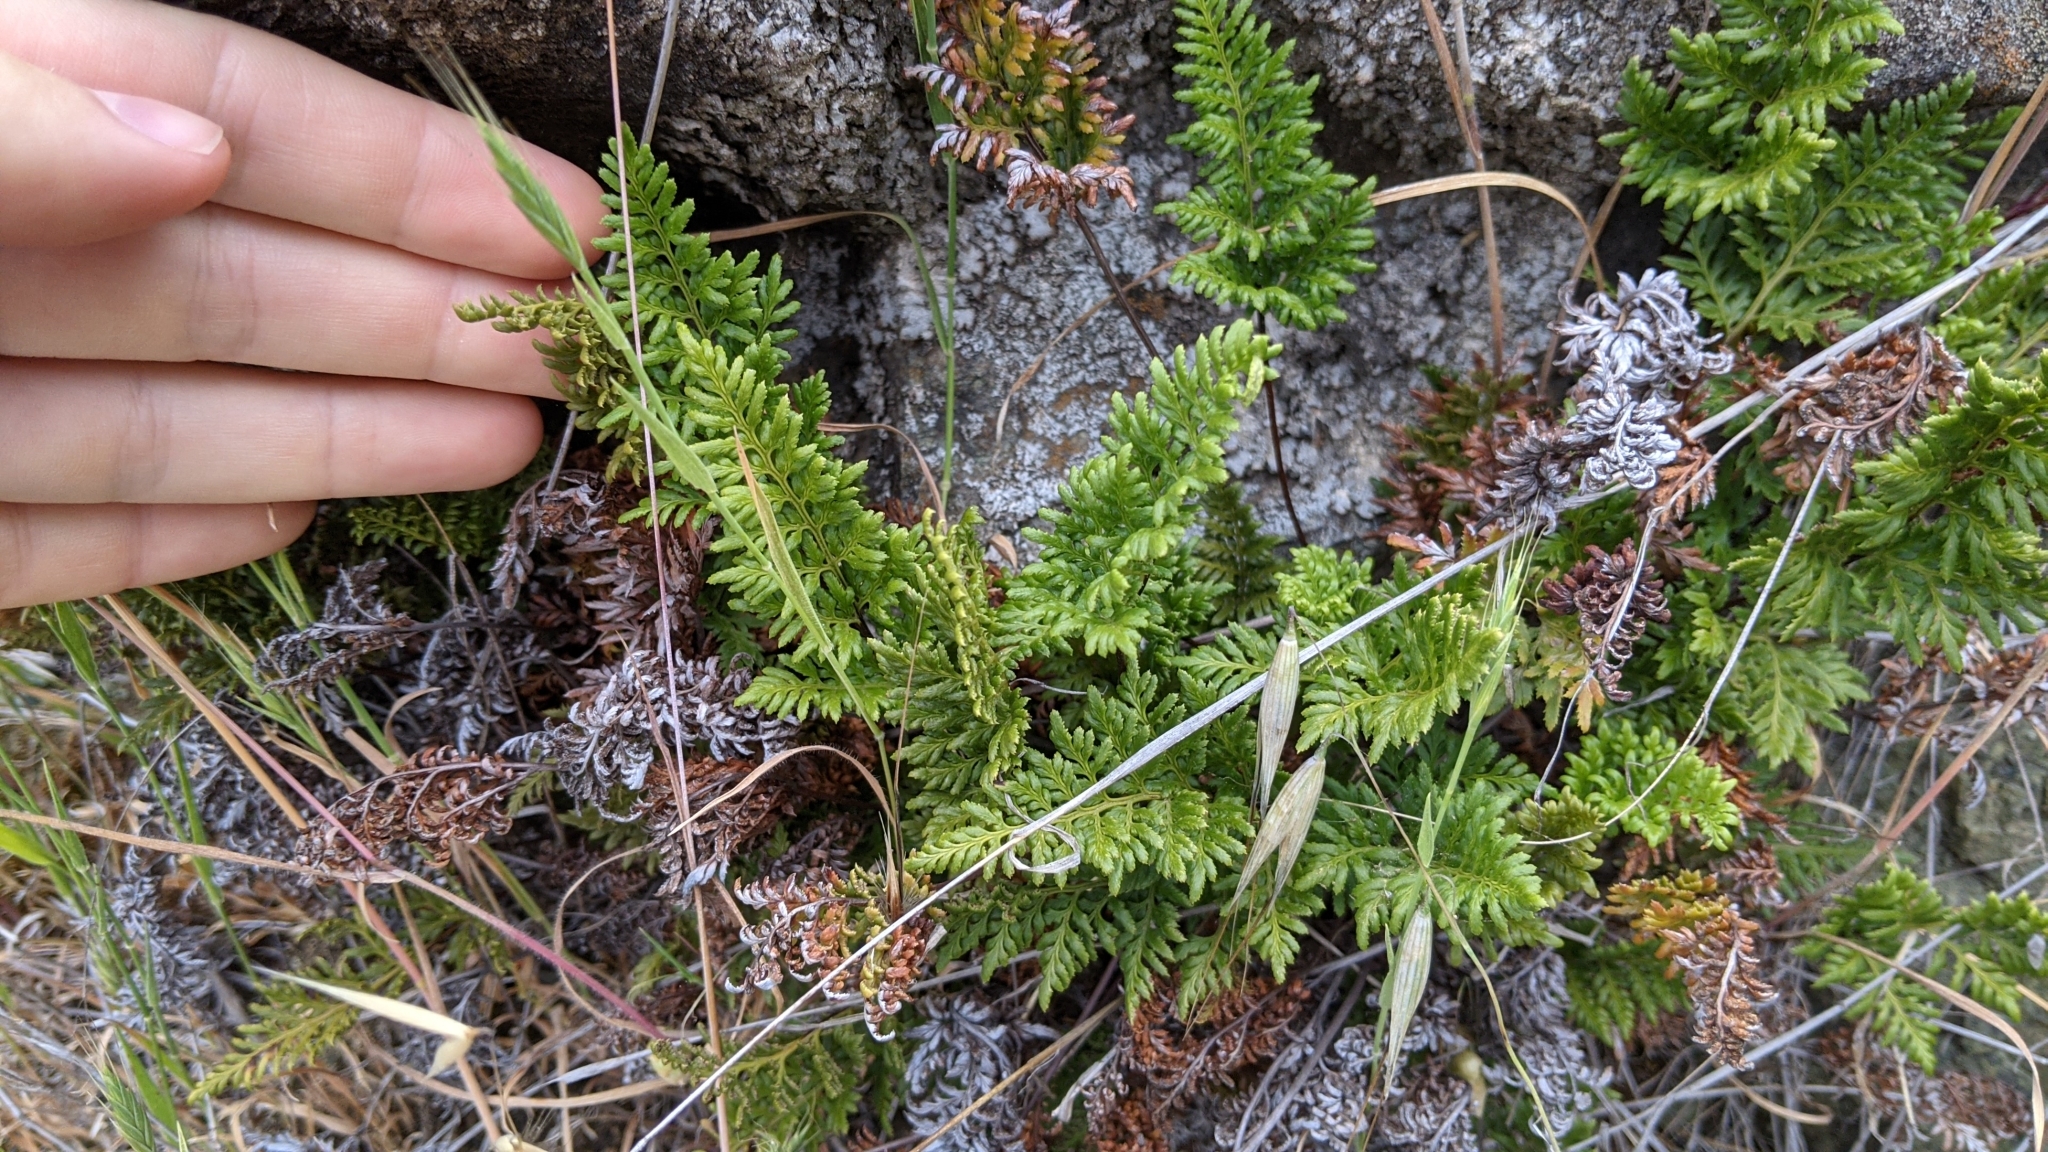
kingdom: Plantae
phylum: Tracheophyta
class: Polypodiopsida
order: Polypodiales
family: Pteridaceae
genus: Aspidotis
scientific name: Aspidotis densa
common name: Indian's dream
